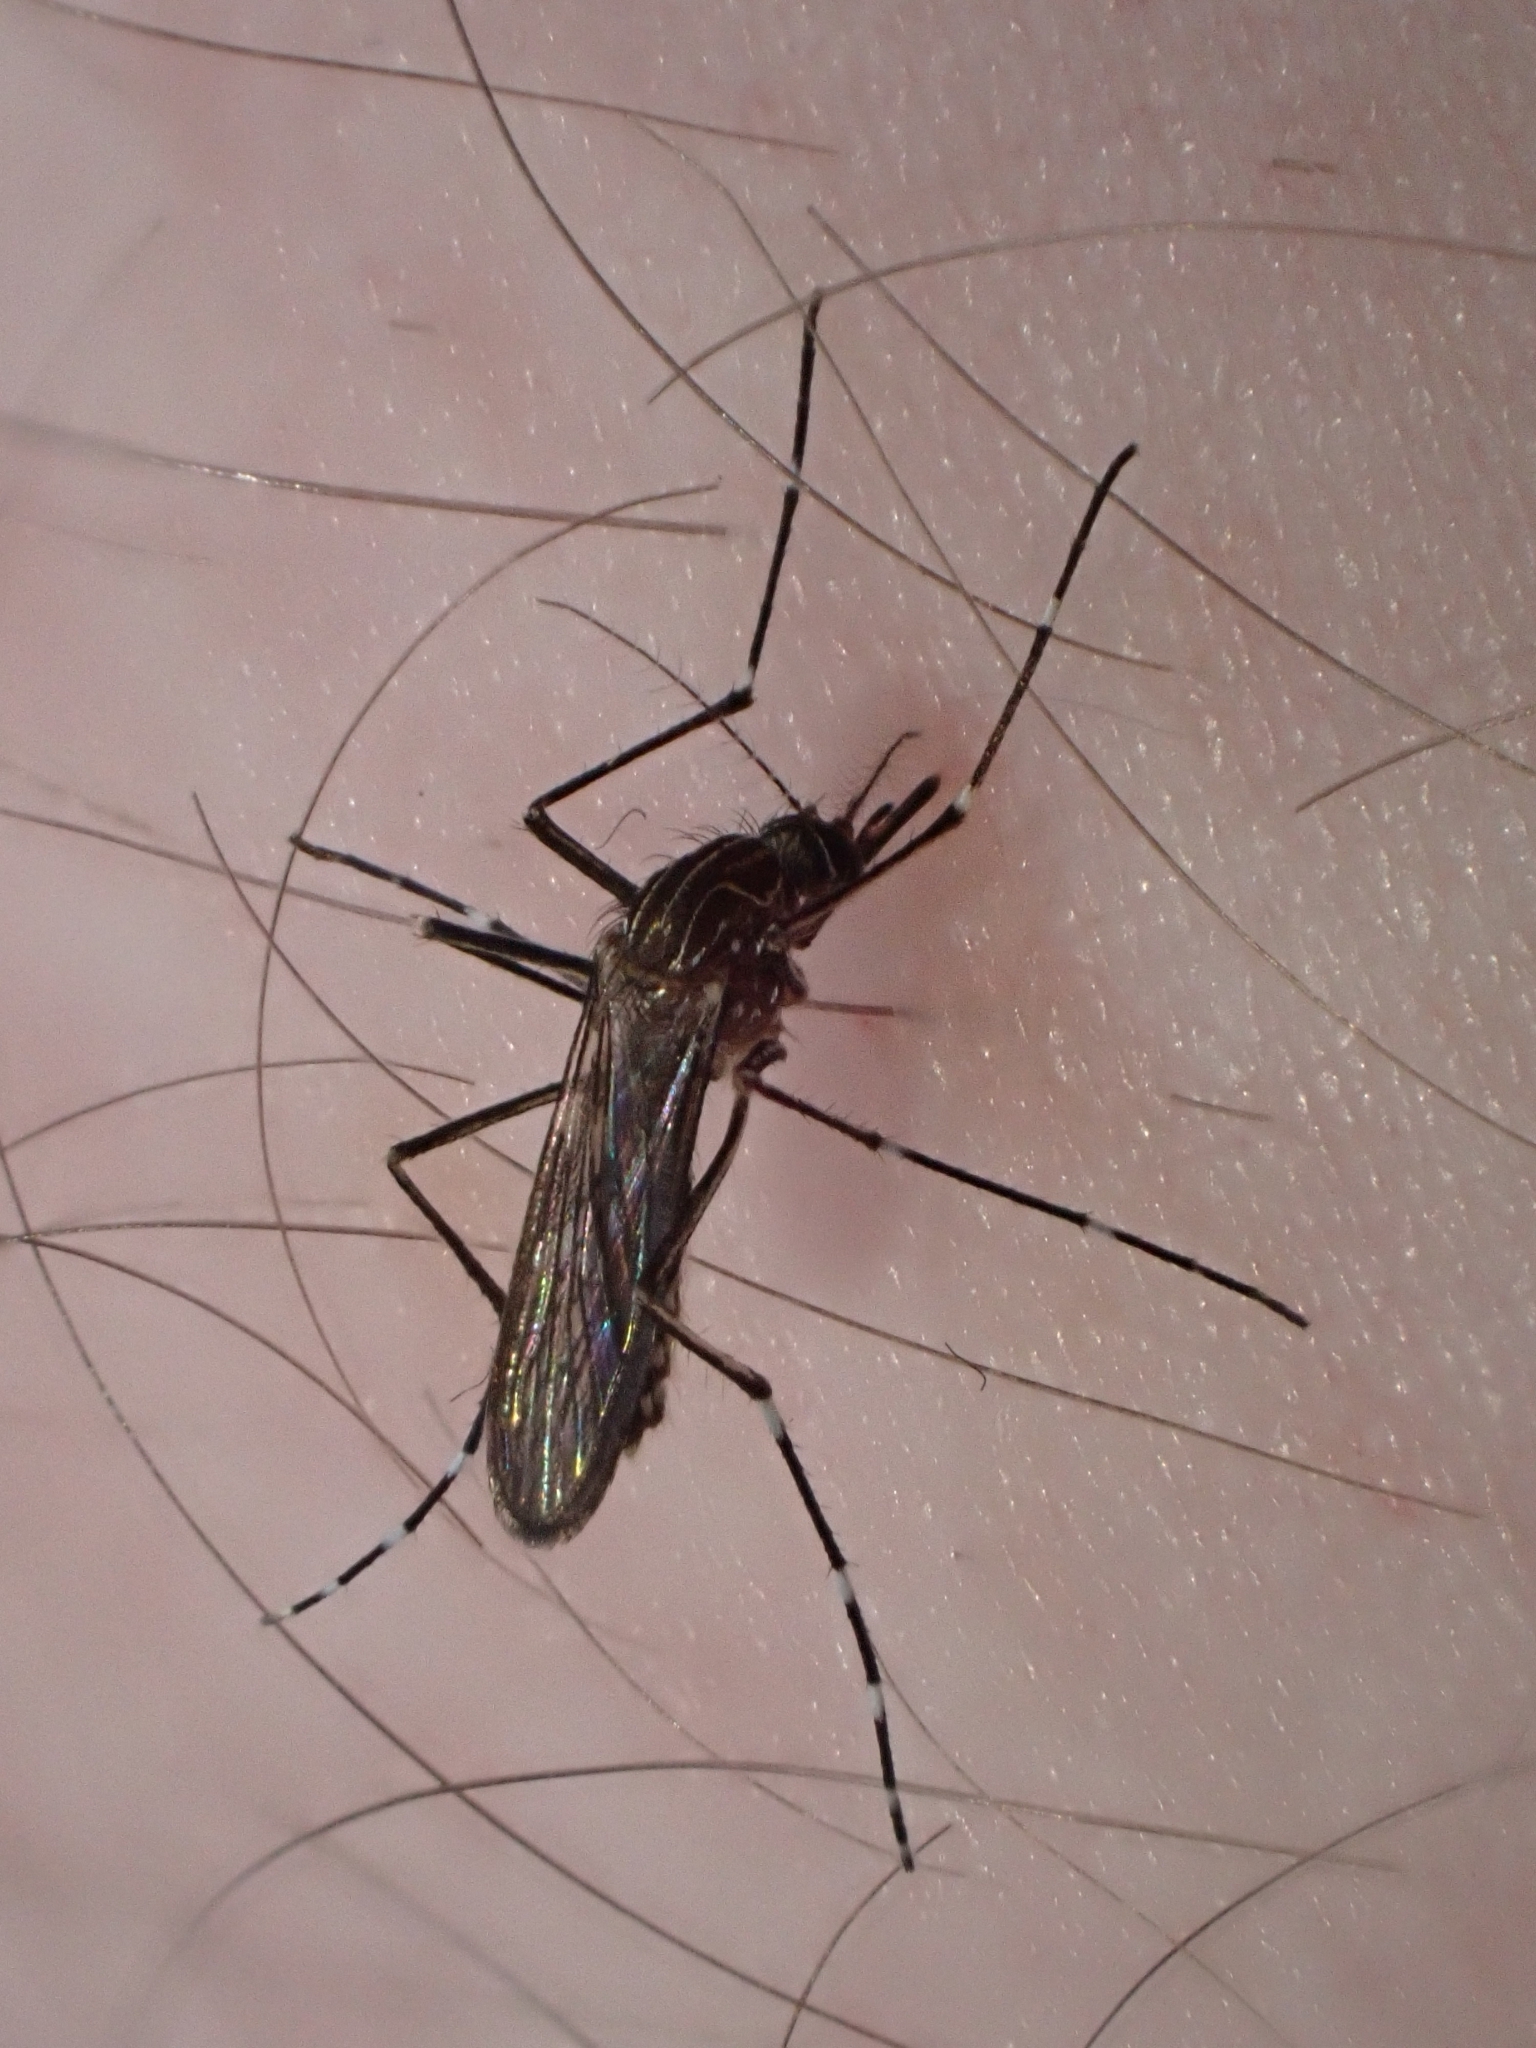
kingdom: Animalia
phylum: Arthropoda
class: Insecta
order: Diptera
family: Culicidae
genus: Aedes
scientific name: Aedes notoscriptus
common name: Australian backyard mosquito
